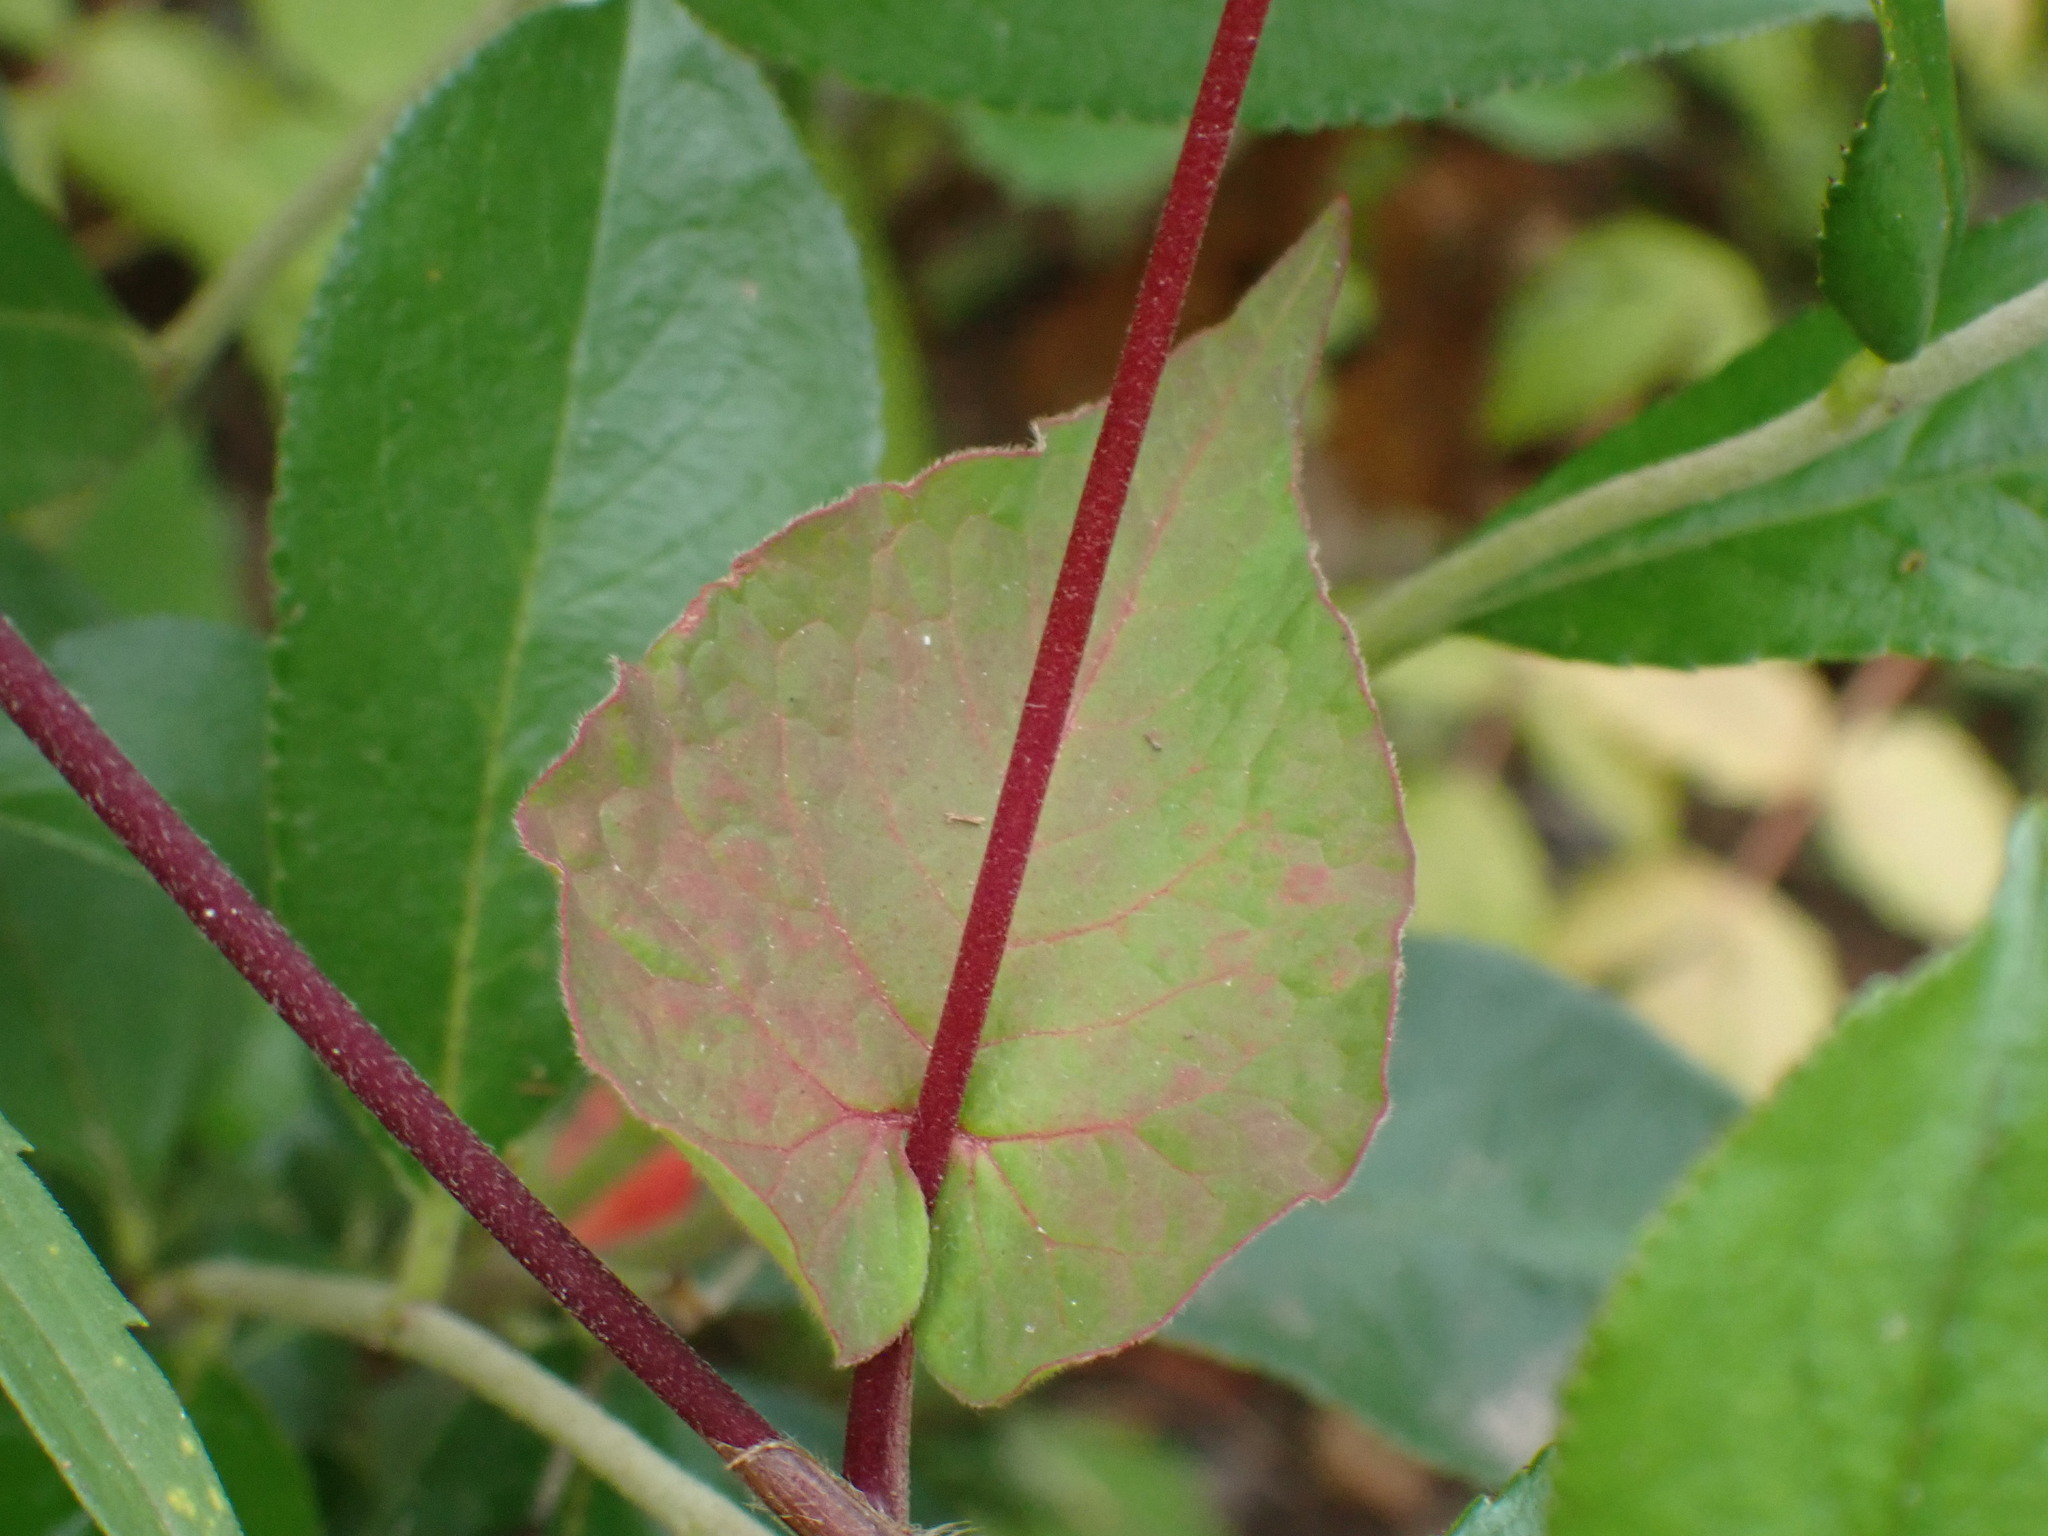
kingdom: Plantae
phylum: Tracheophyta
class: Magnoliopsida
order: Caryophyllales
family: Polygonaceae
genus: Parogonum
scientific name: Parogonum ciliinode
